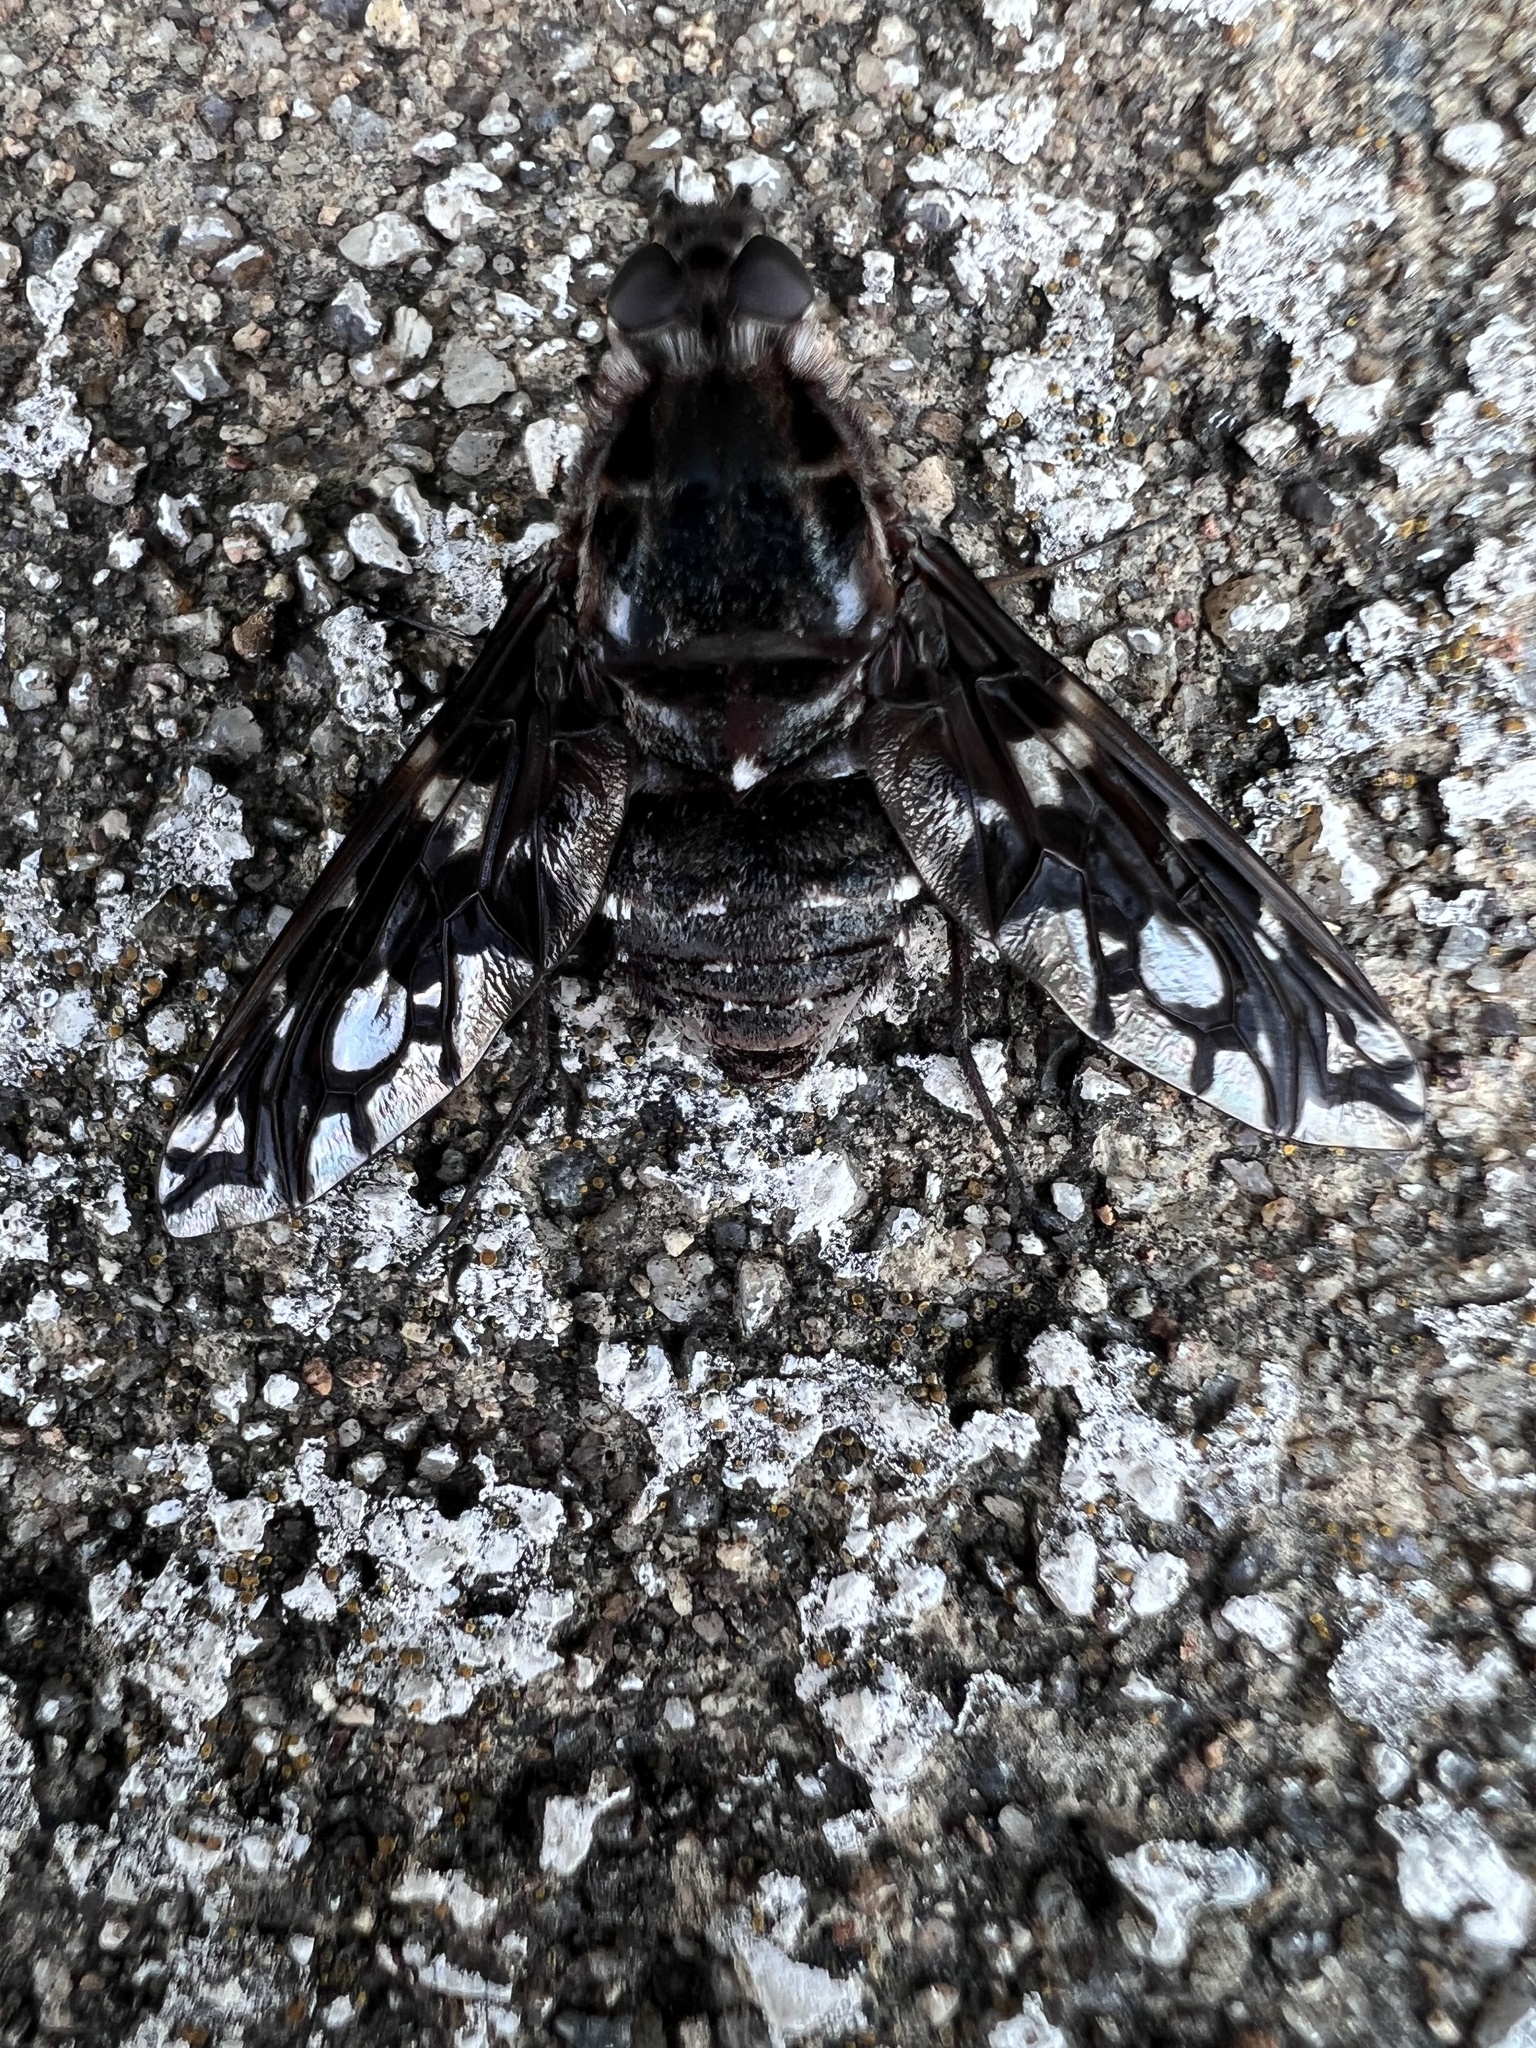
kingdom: Animalia
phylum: Arthropoda
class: Insecta
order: Diptera
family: Bombyliidae
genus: Xenox
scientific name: Xenox tigrinus
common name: Tiger bee fly
